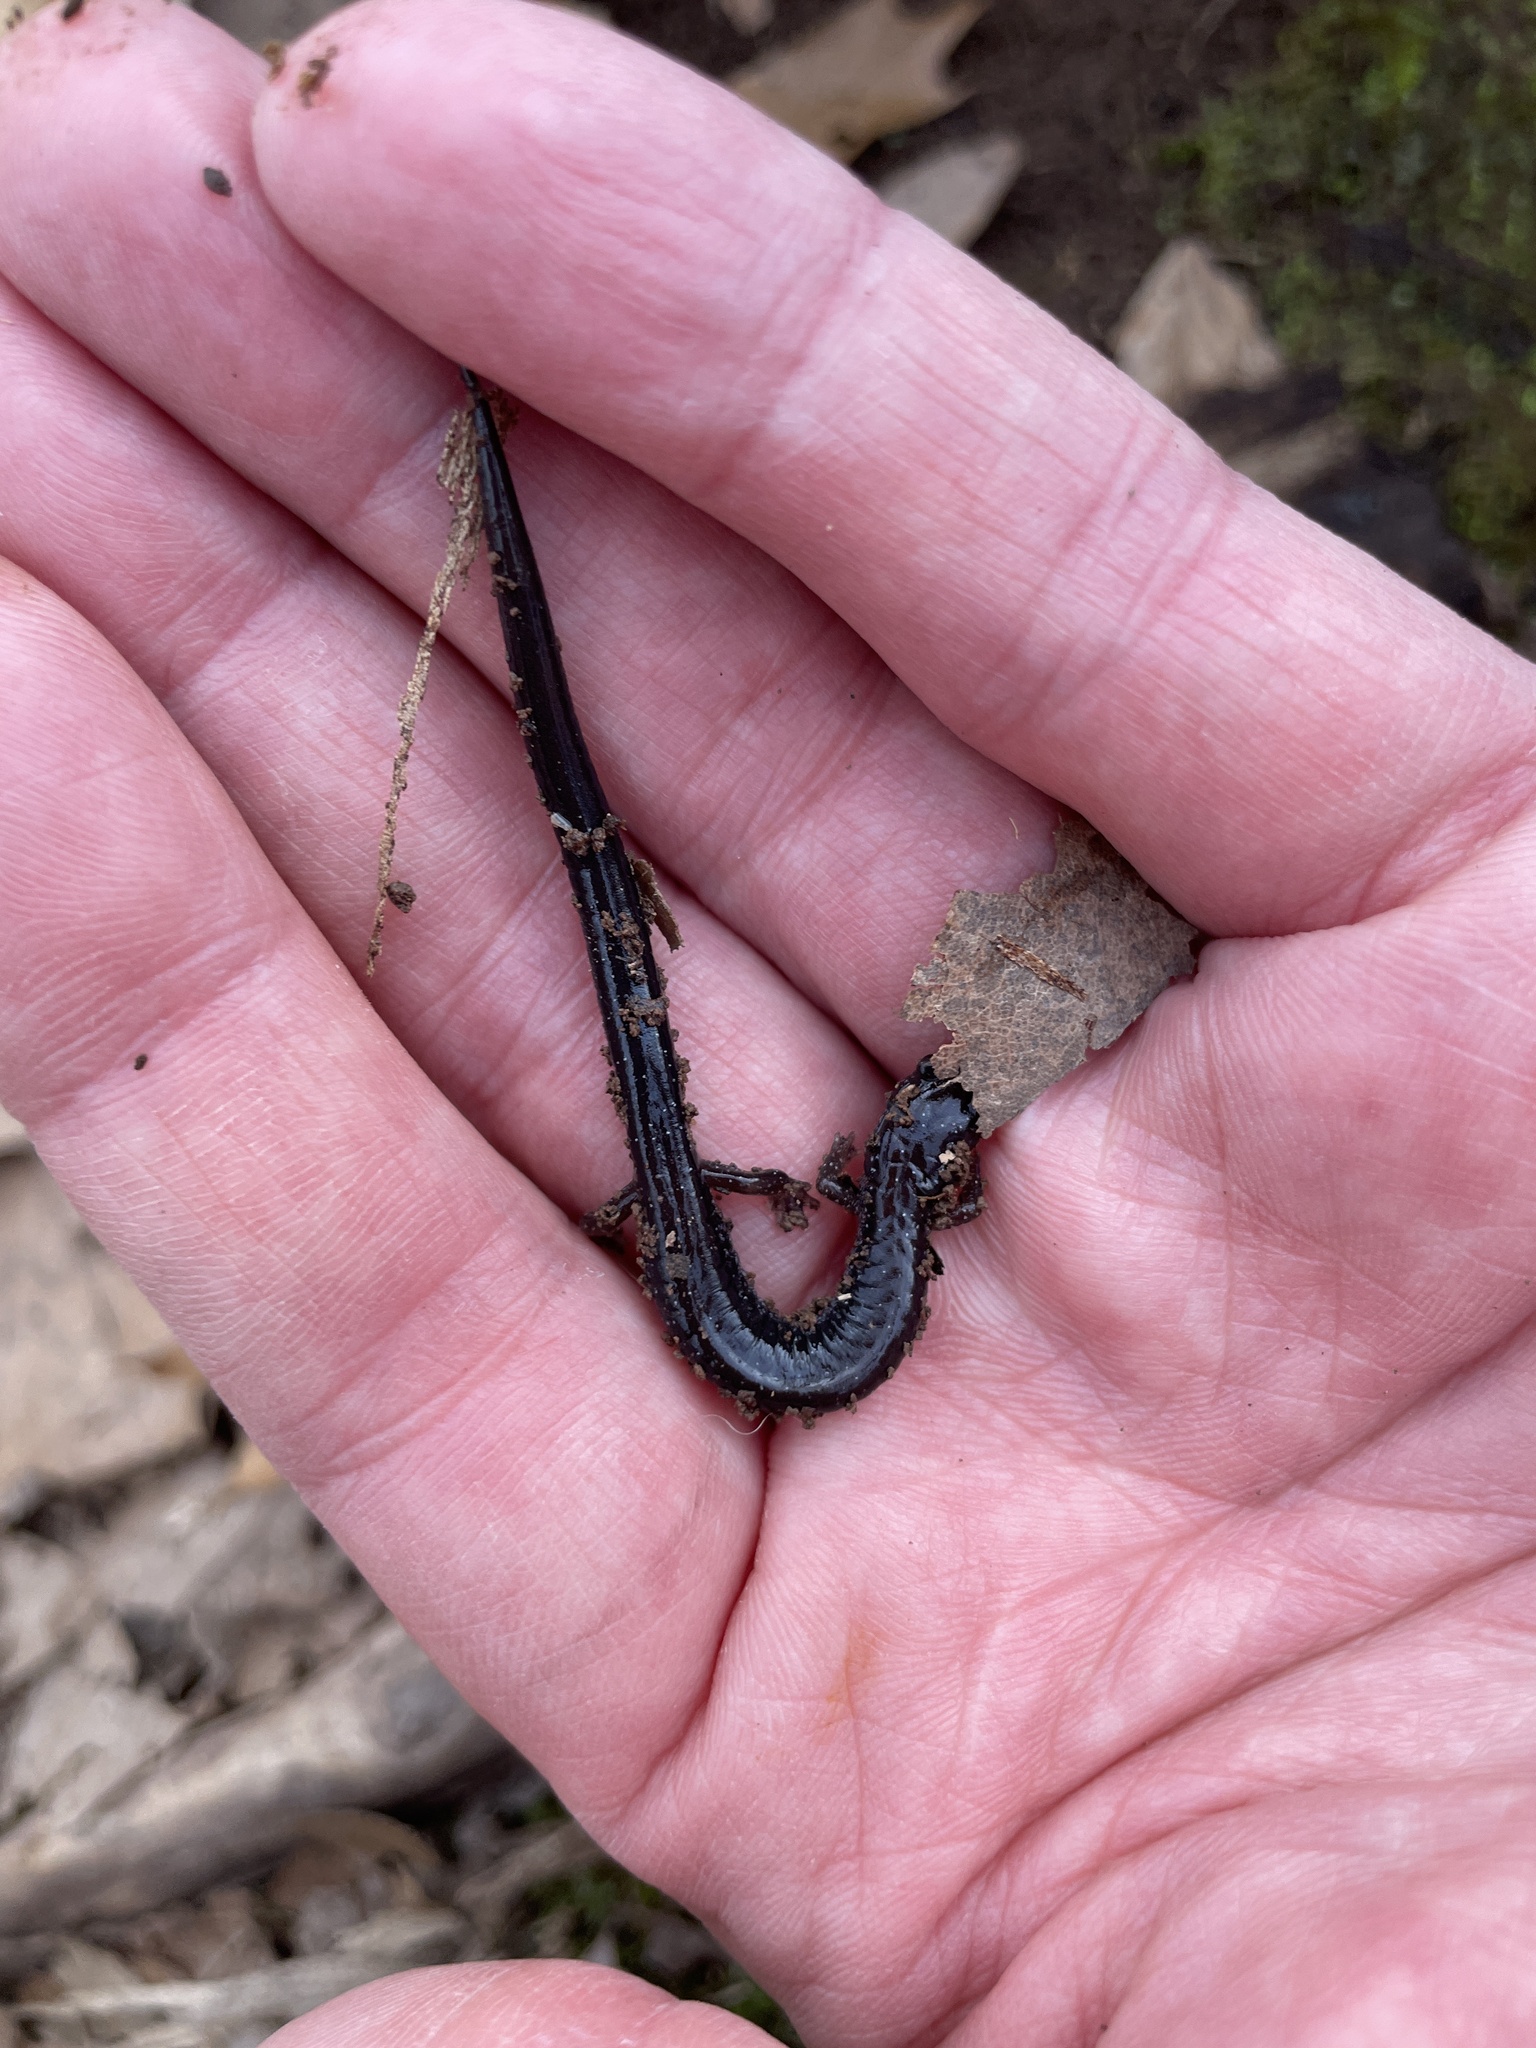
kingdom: Animalia
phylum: Chordata
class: Amphibia
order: Caudata
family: Plethodontidae
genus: Plethodon
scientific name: Plethodon cinereus
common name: Redback salamander
